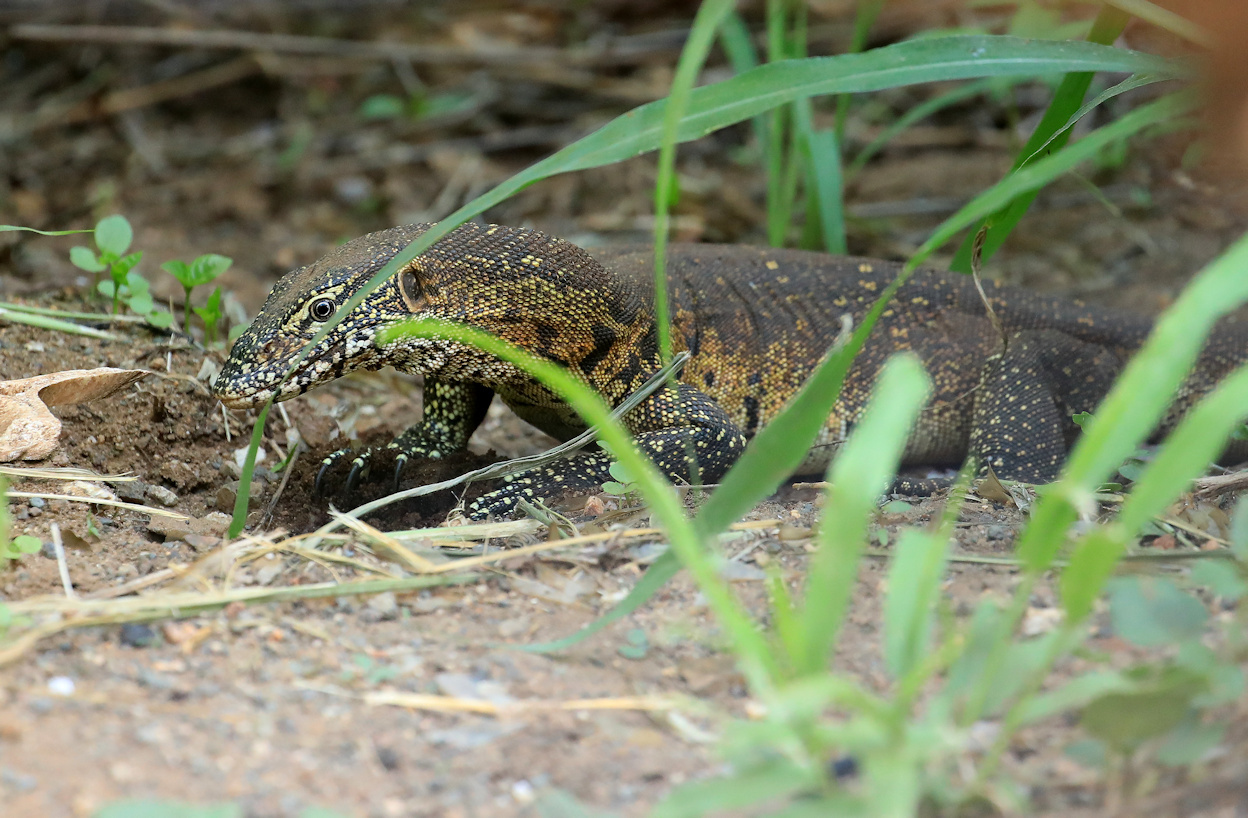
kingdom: Animalia
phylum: Chordata
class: Squamata
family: Varanidae
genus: Varanus
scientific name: Varanus niloticus
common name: Nile monitor
